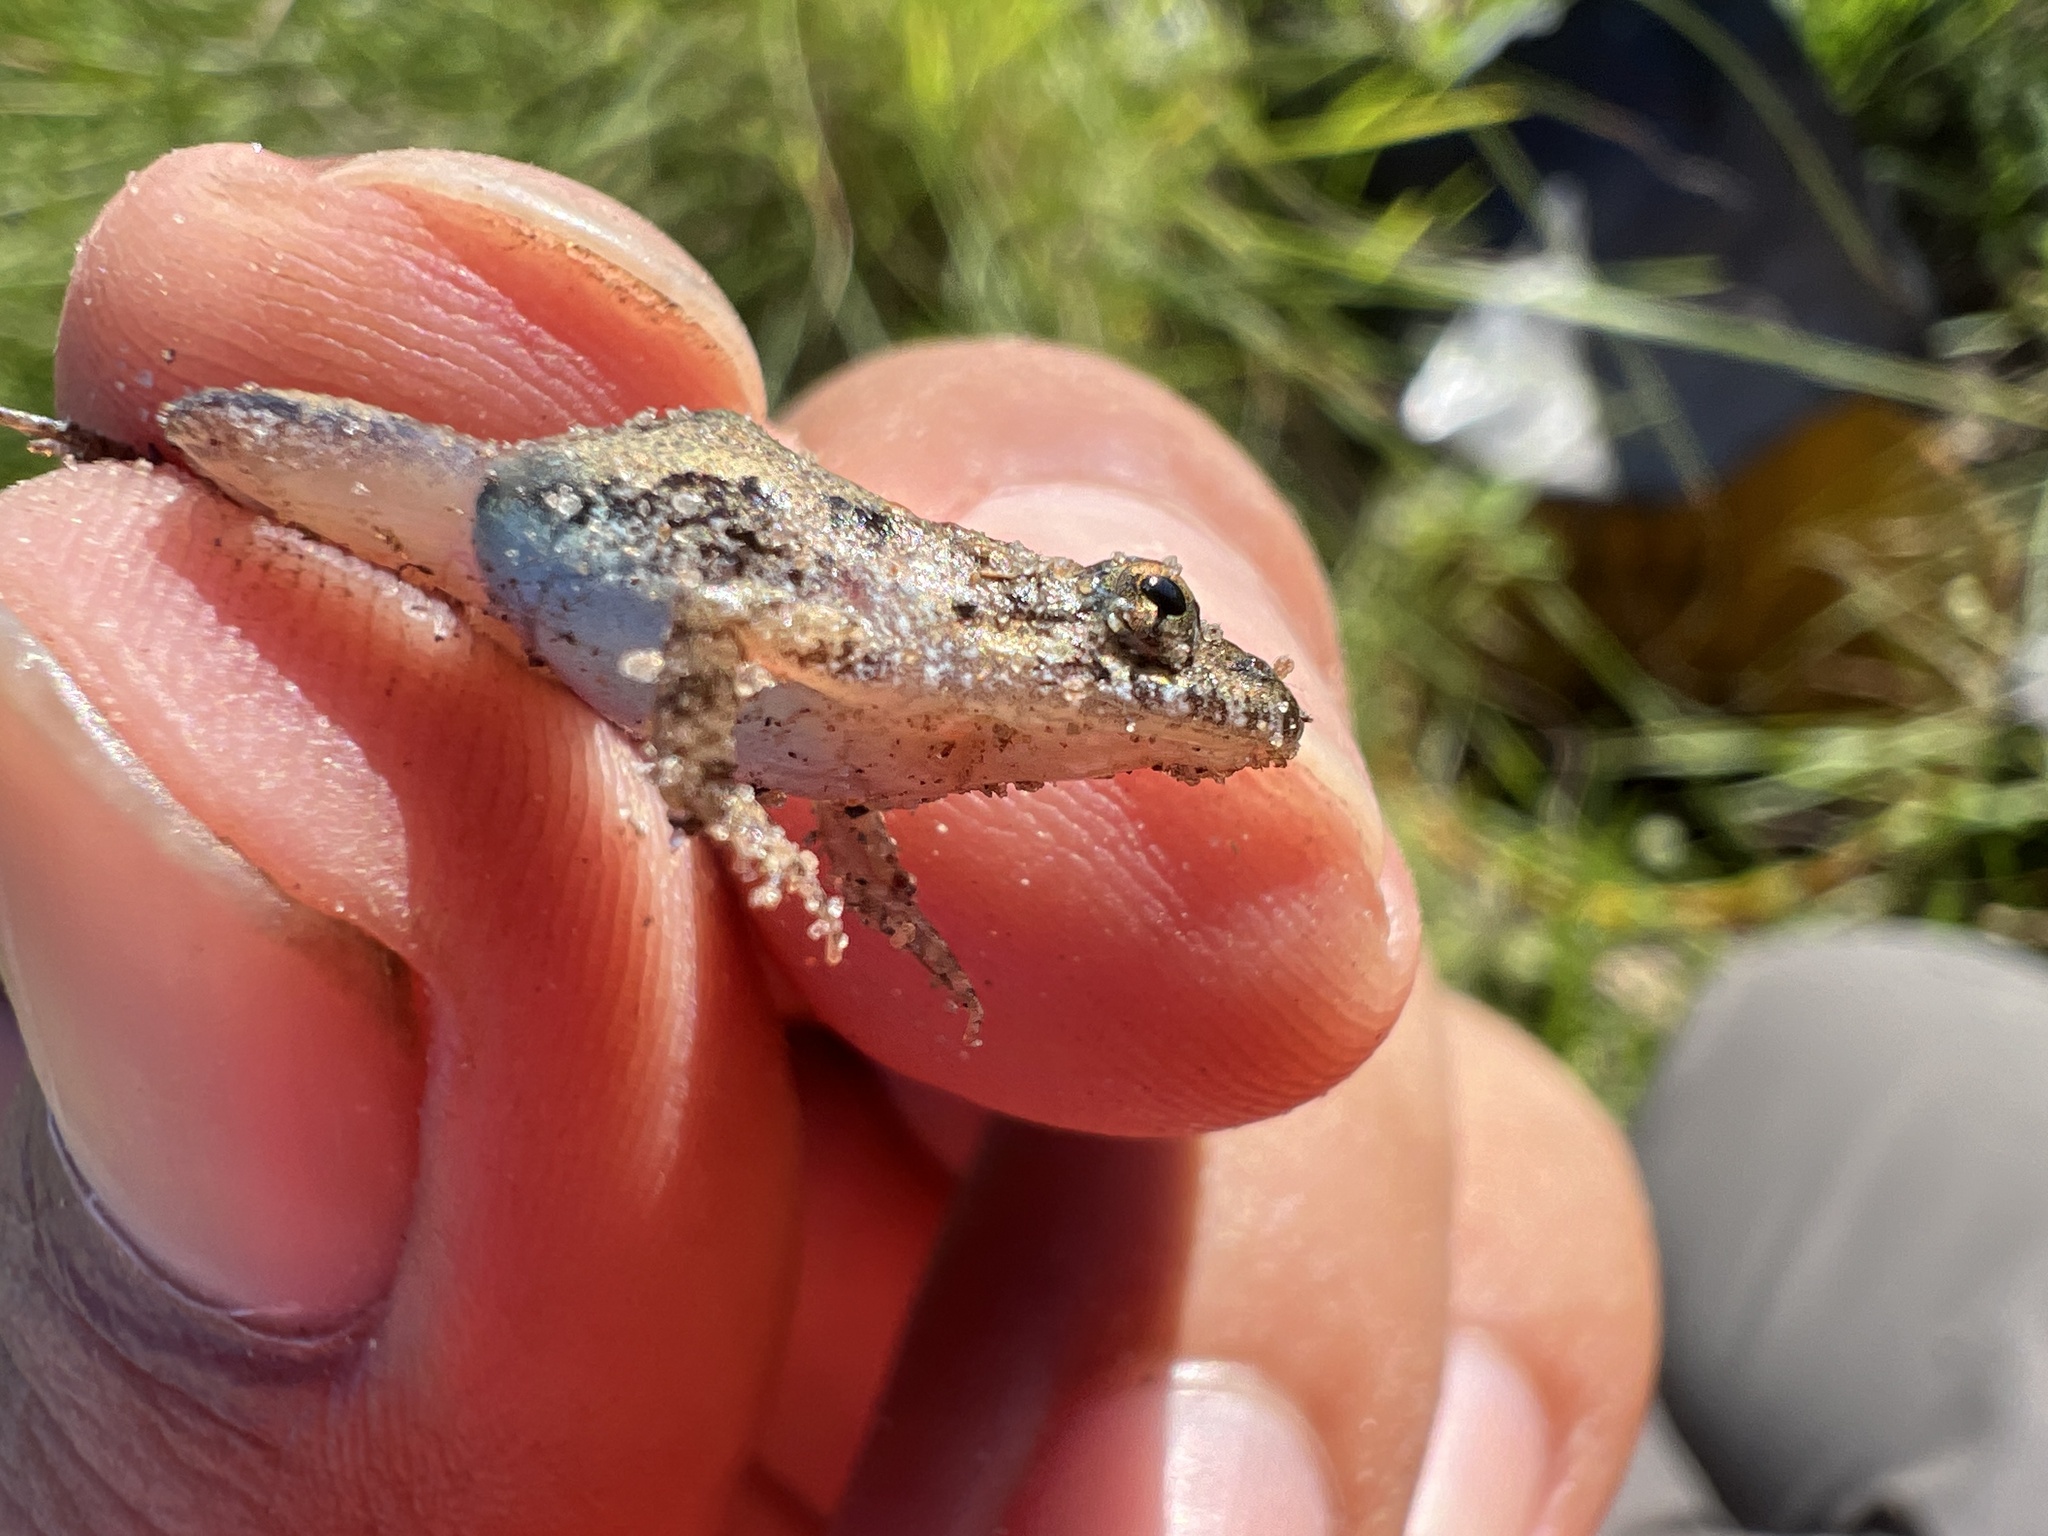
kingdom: Animalia
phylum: Chordata
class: Amphibia
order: Anura
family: Leptodactylidae
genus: Pseudopaludicola
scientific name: Pseudopaludicola falcipes
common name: Hensel’s swamp frog
